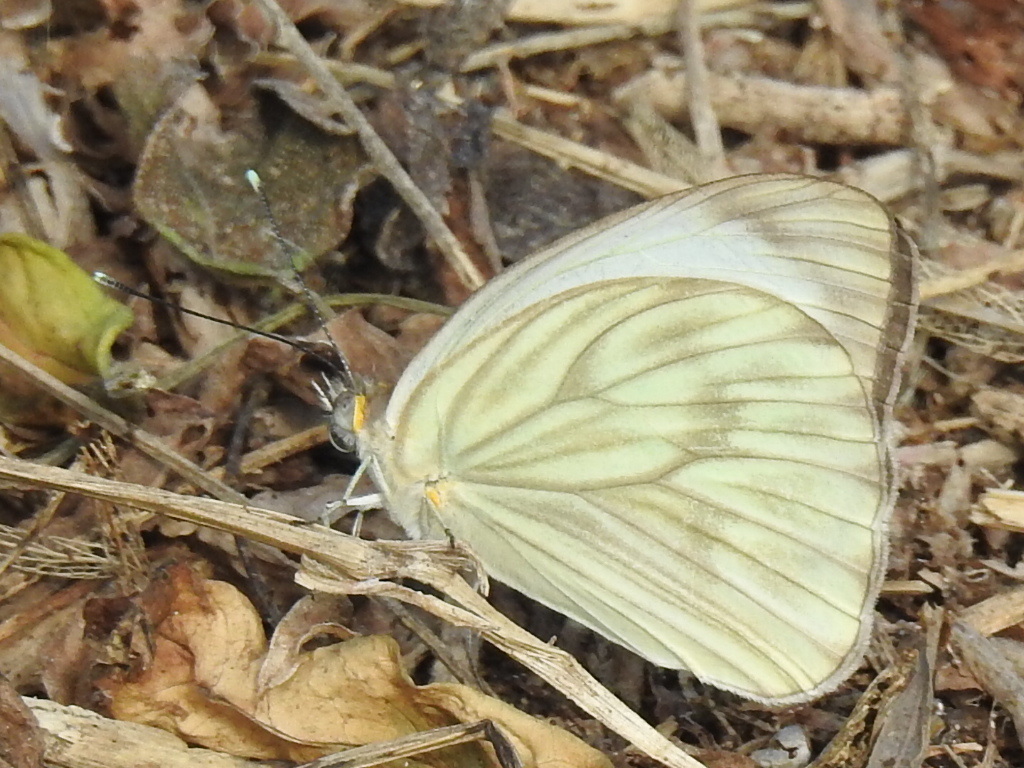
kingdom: Animalia
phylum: Arthropoda
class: Insecta
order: Lepidoptera
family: Pieridae
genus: Ascia
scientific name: Ascia monuste
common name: Great southern white
